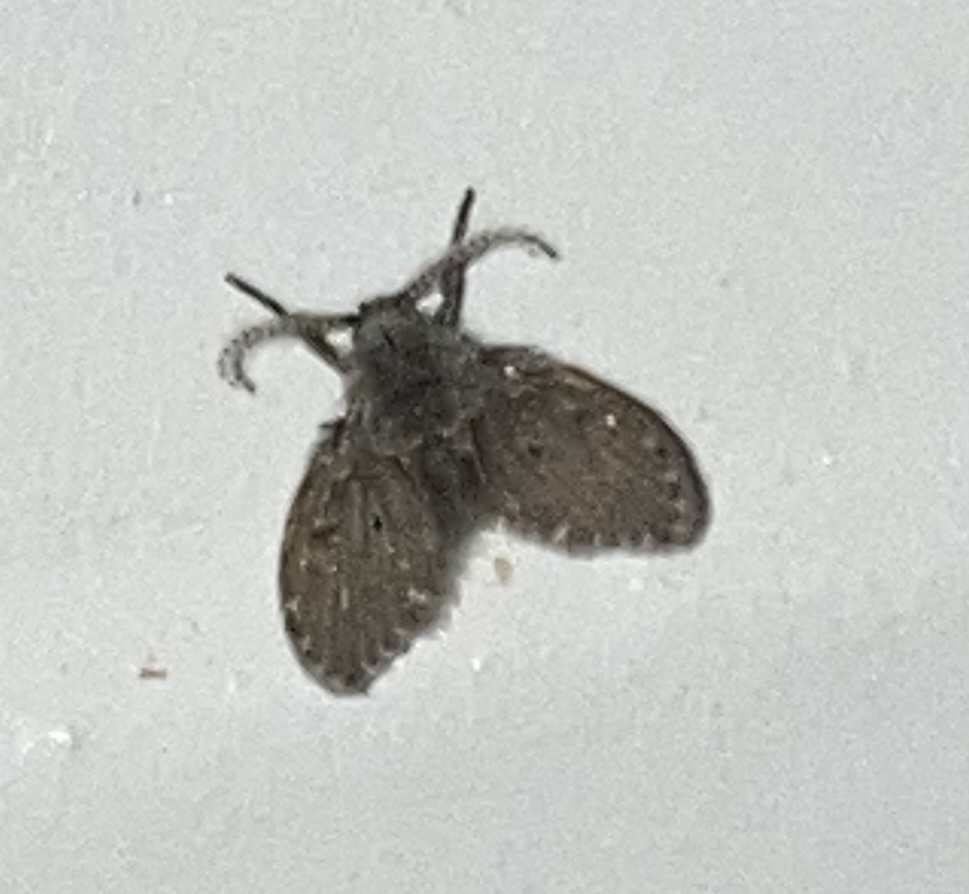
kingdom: Animalia
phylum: Arthropoda
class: Insecta
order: Diptera
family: Psychodidae
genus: Clogmia
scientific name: Clogmia albipunctatus
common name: White-spotted moth fly
